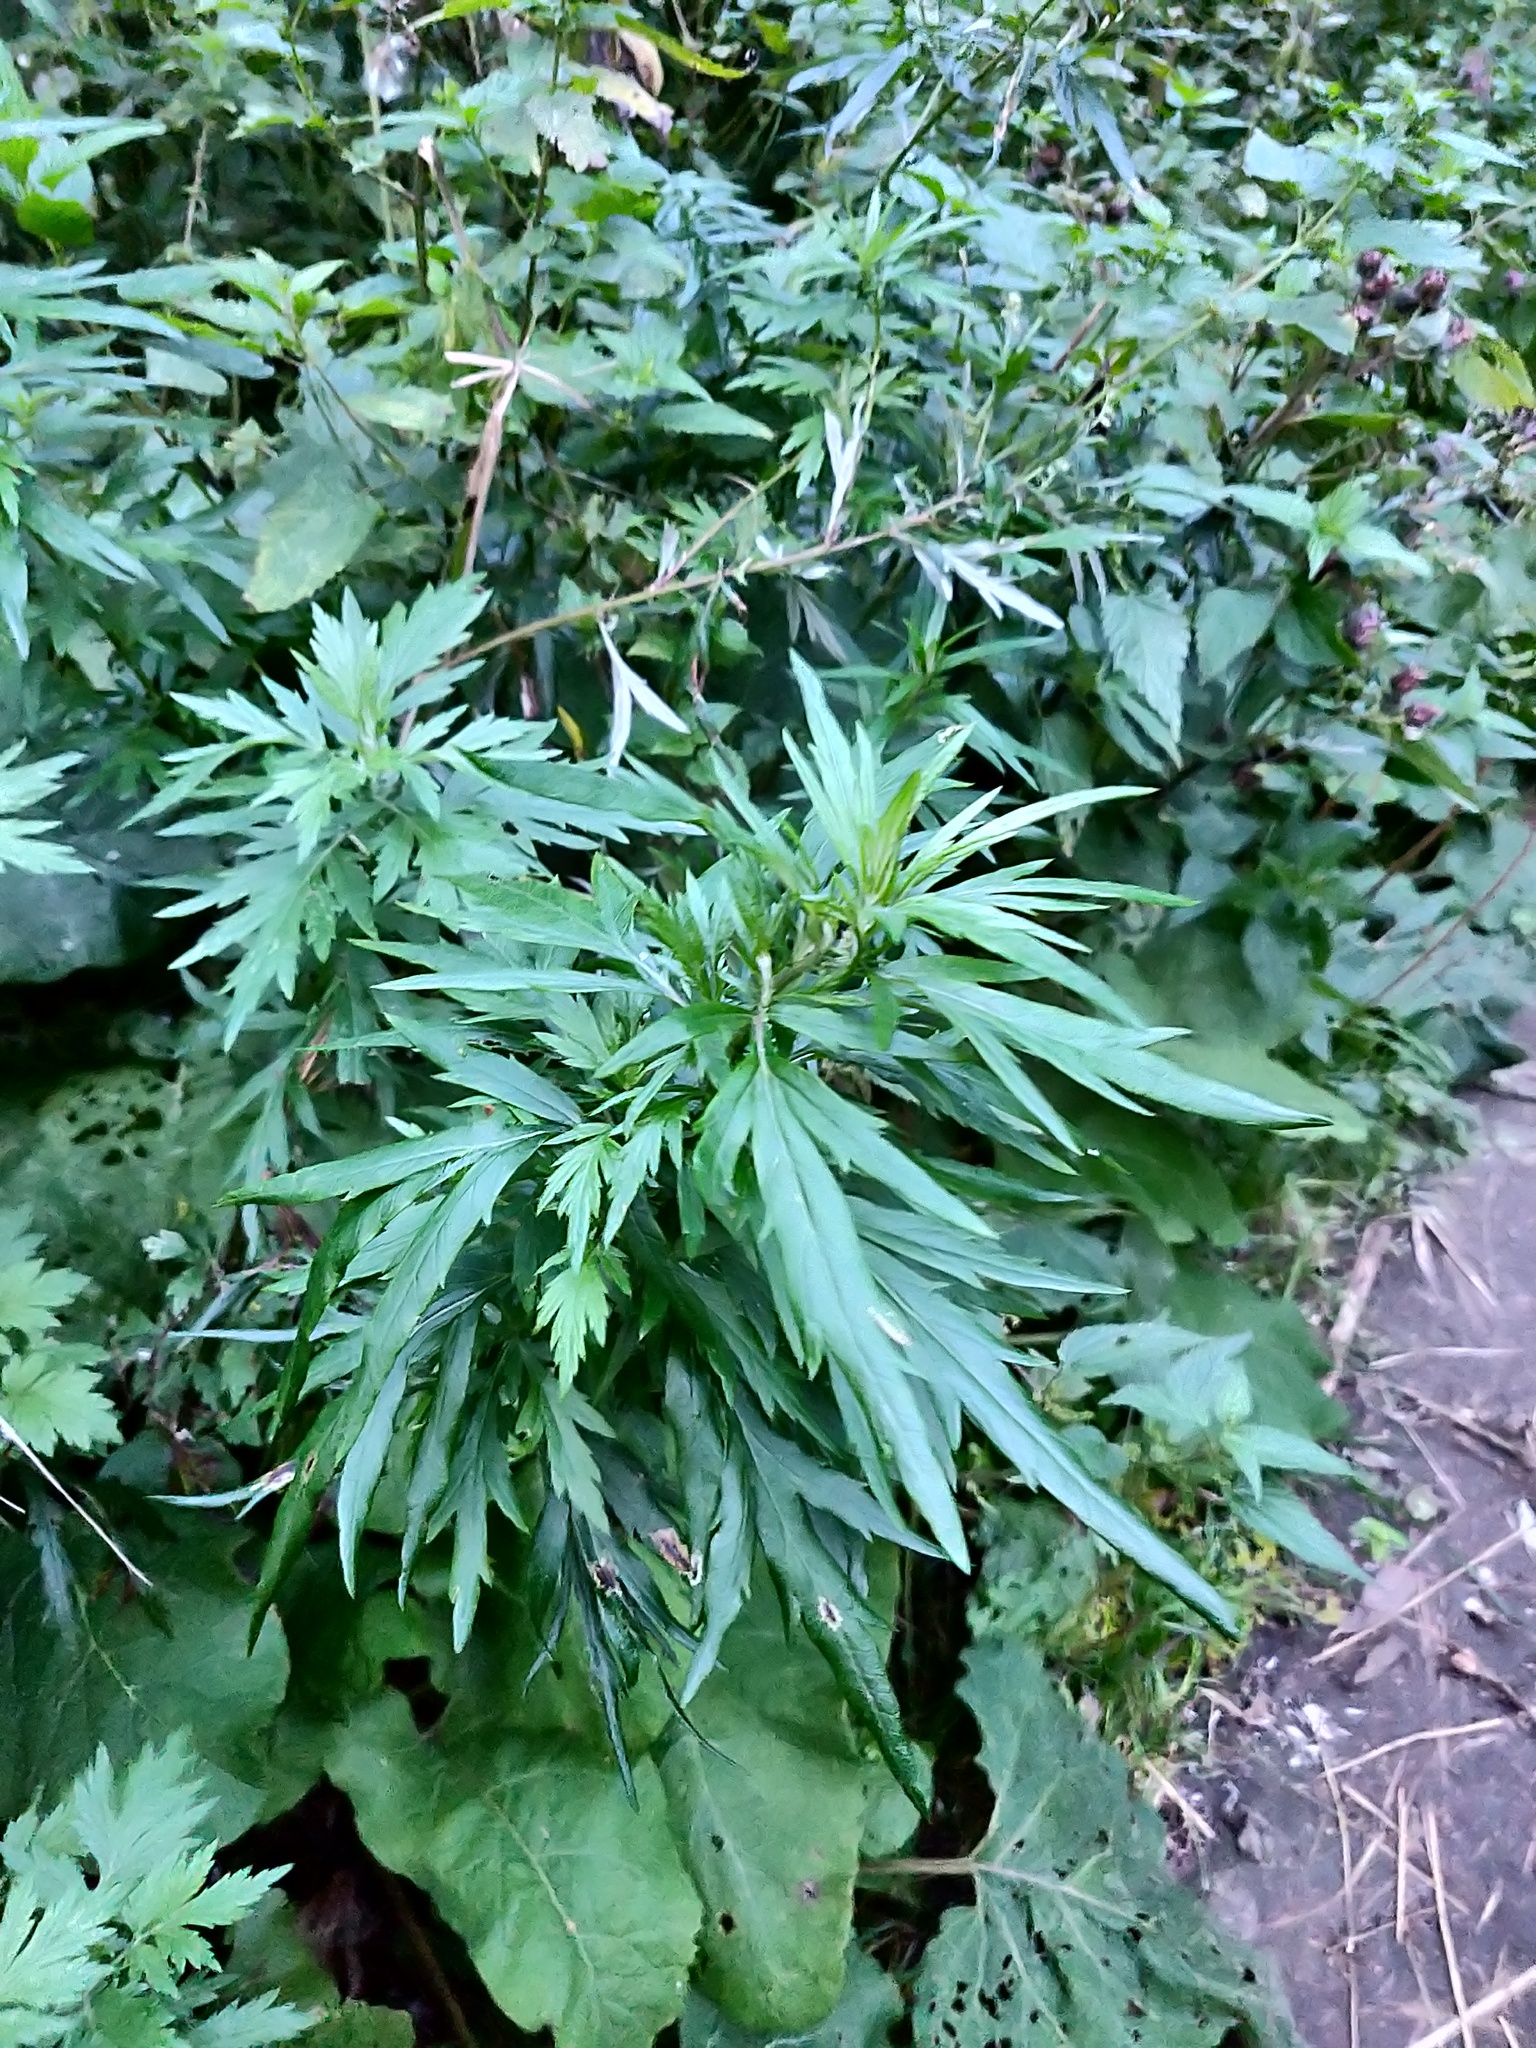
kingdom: Plantae
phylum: Tracheophyta
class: Magnoliopsida
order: Asterales
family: Asteraceae
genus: Artemisia
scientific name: Artemisia vulgaris
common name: Mugwort
